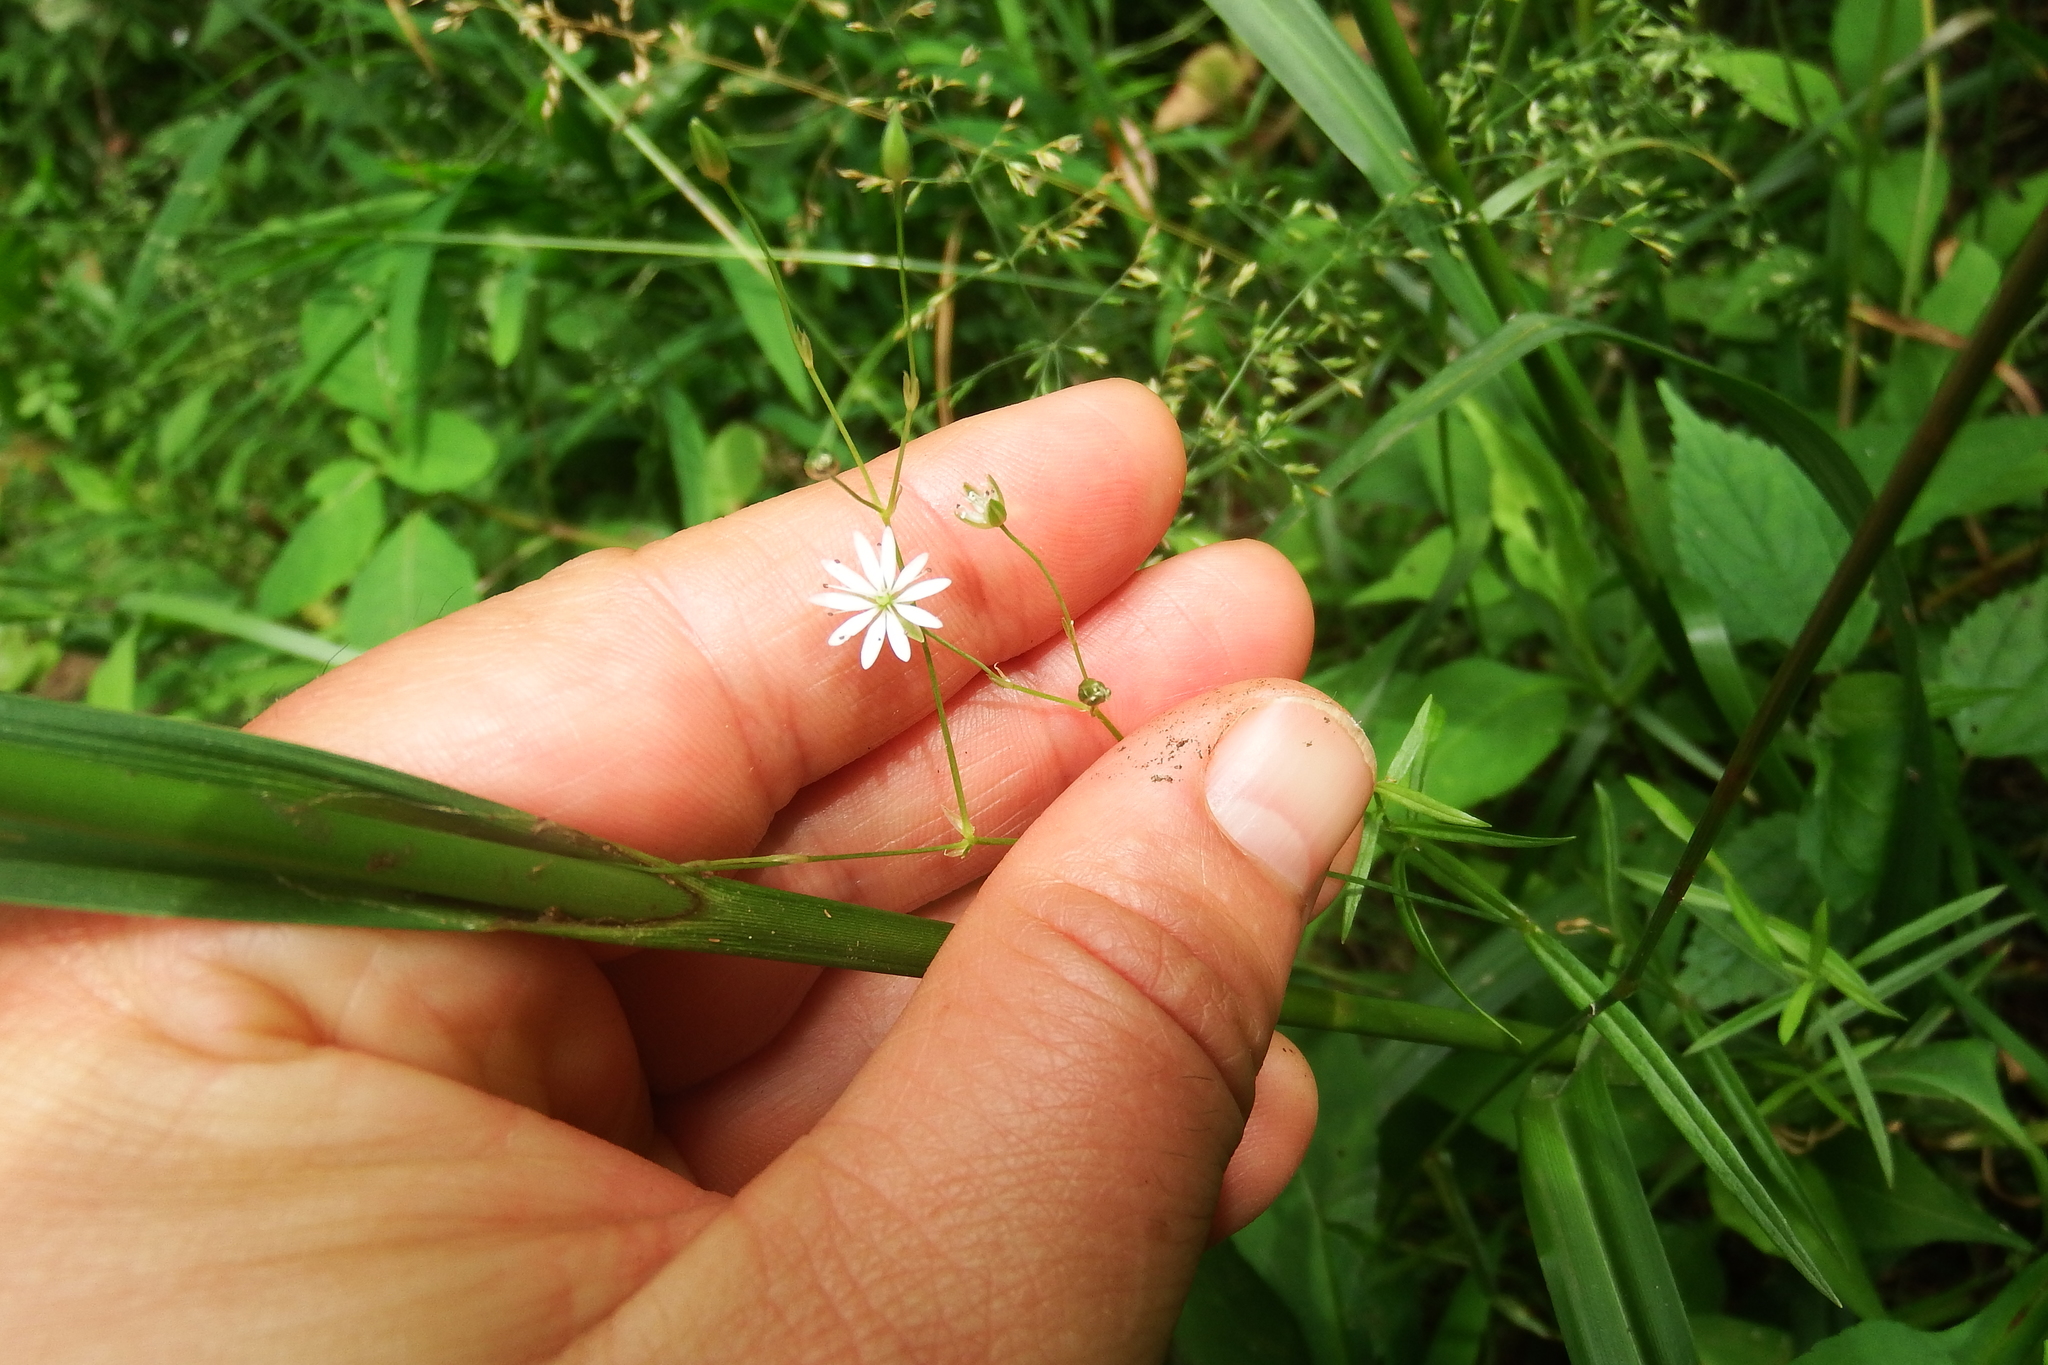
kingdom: Plantae
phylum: Tracheophyta
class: Magnoliopsida
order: Caryophyllales
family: Caryophyllaceae
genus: Stellaria
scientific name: Stellaria graminea
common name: Grass-like starwort
